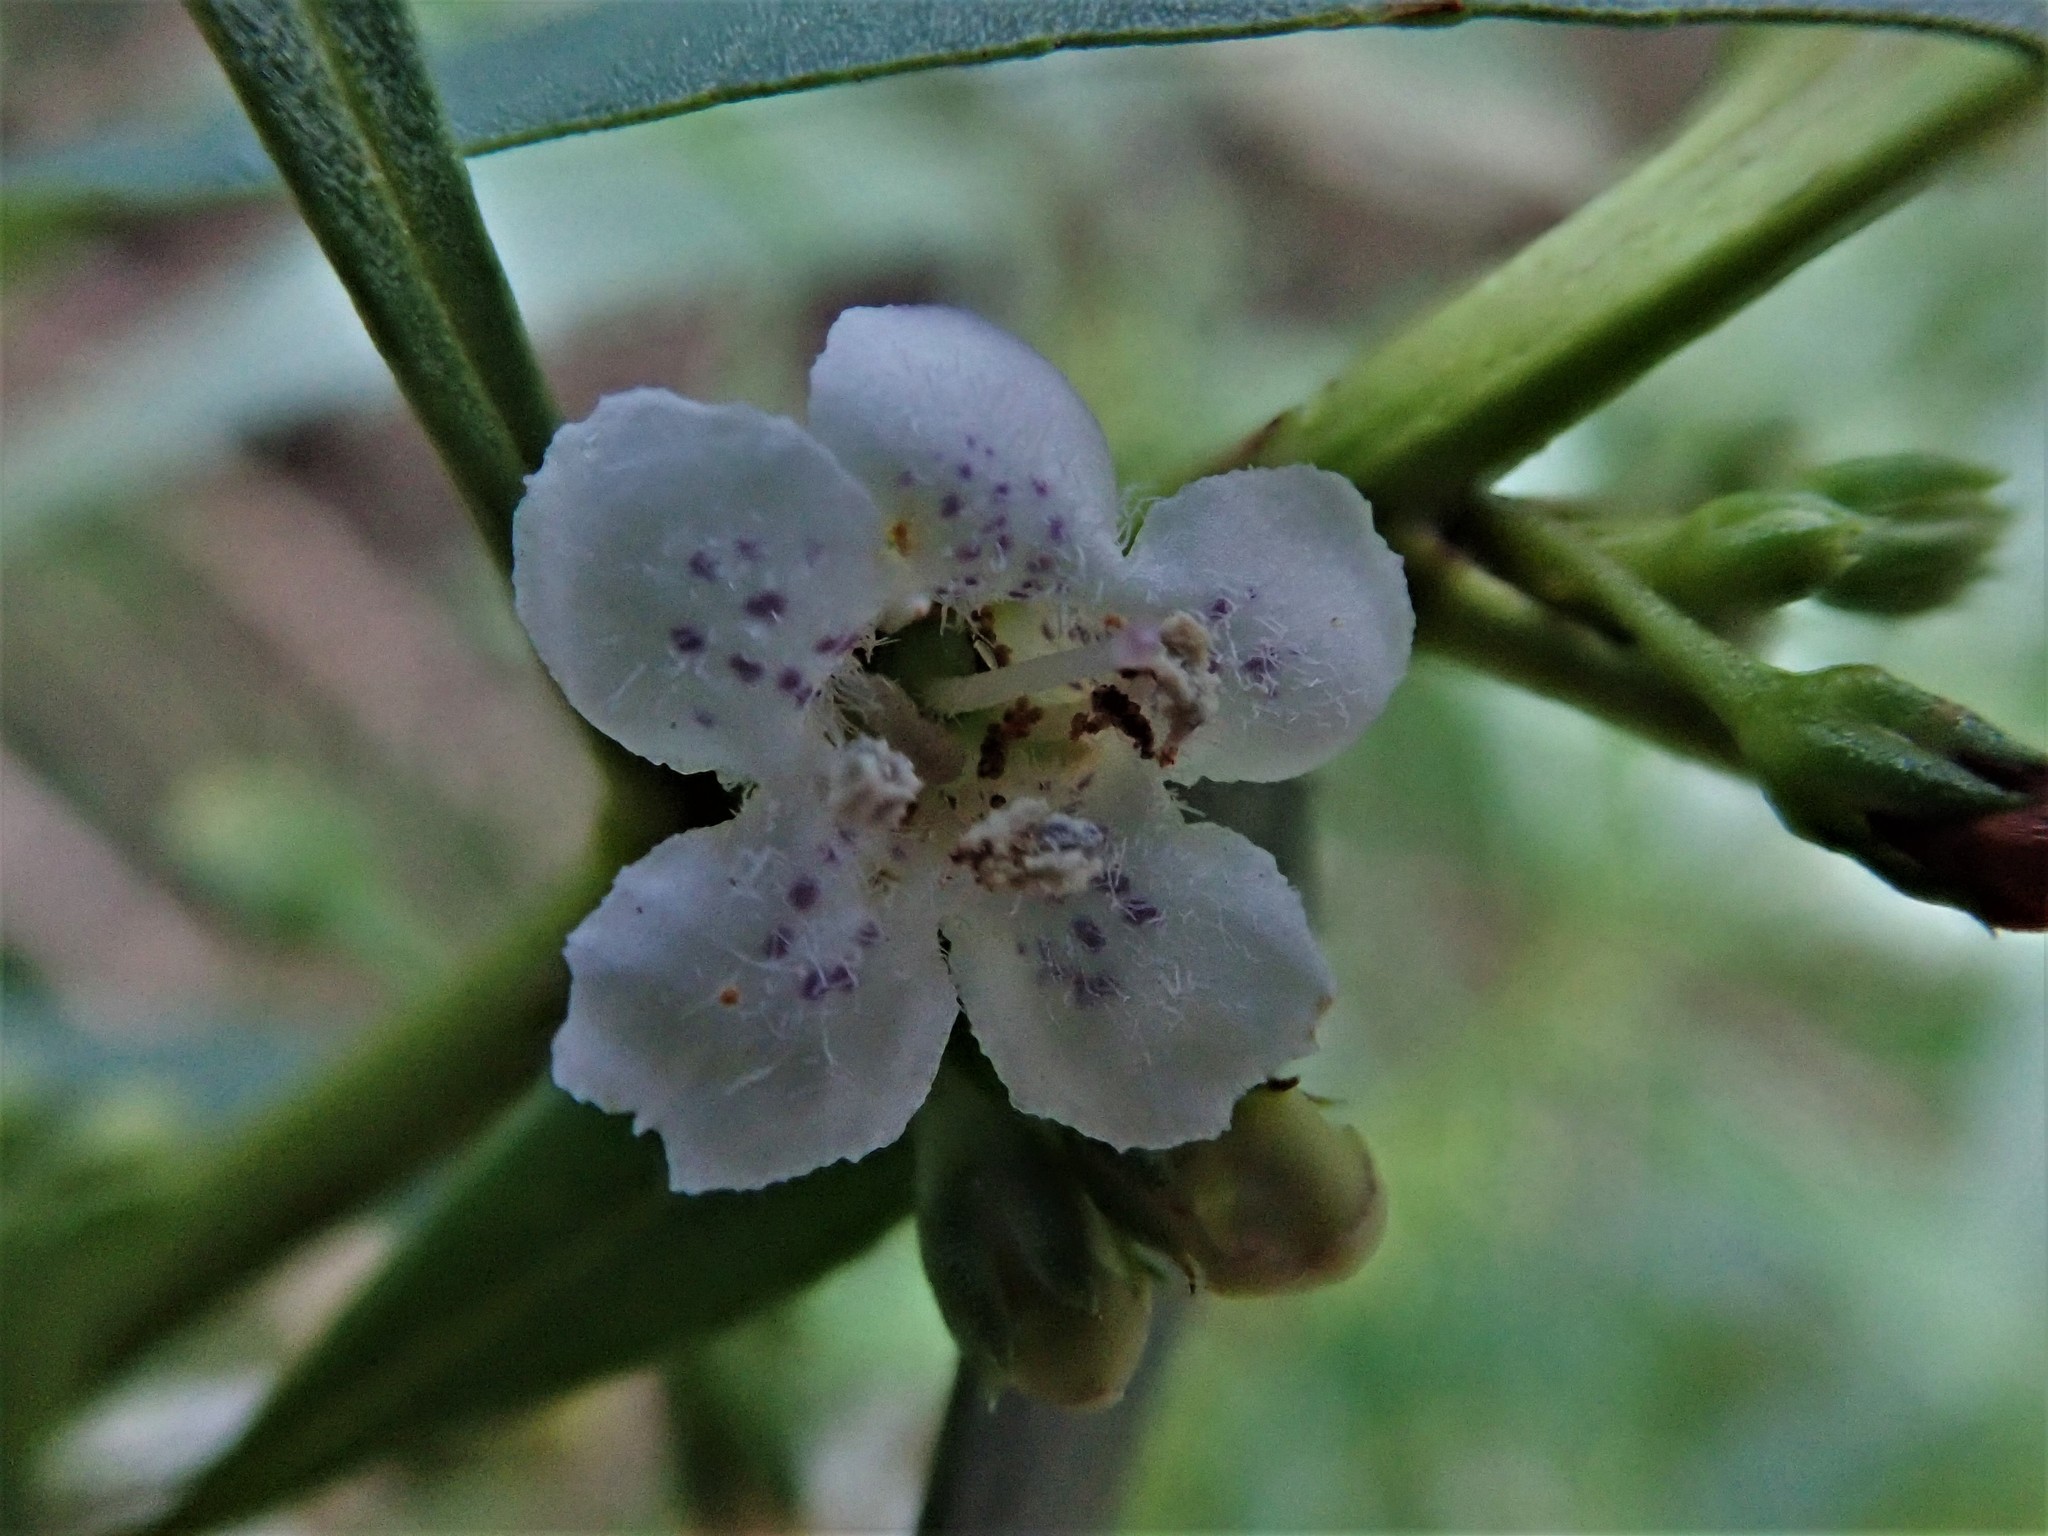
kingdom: Plantae
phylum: Tracheophyta
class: Magnoliopsida
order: Lamiales
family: Scrophulariaceae
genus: Myoporum
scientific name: Myoporum
